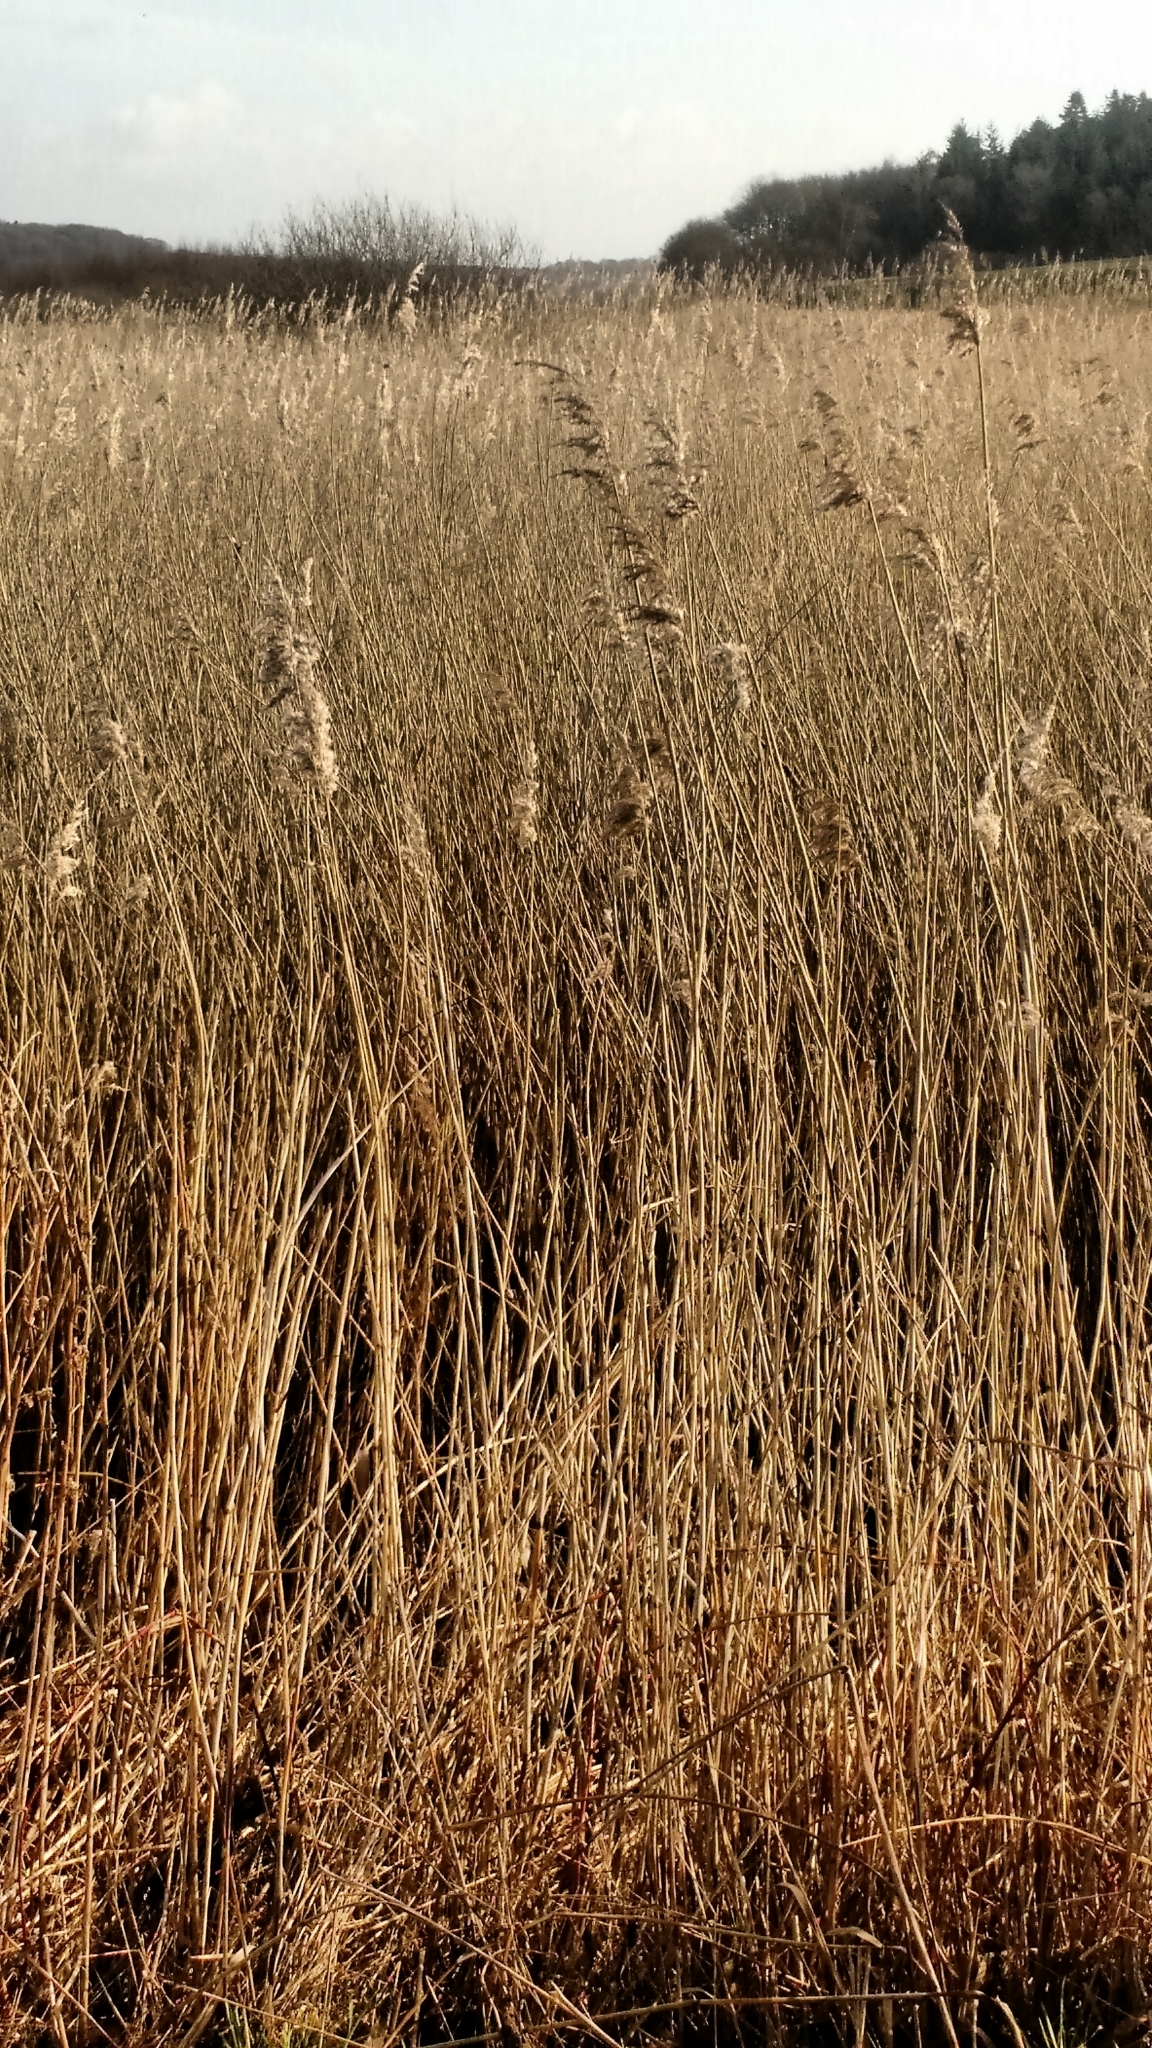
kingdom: Plantae
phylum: Tracheophyta
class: Liliopsida
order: Poales
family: Poaceae
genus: Phragmites
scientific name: Phragmites australis
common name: Common reed
